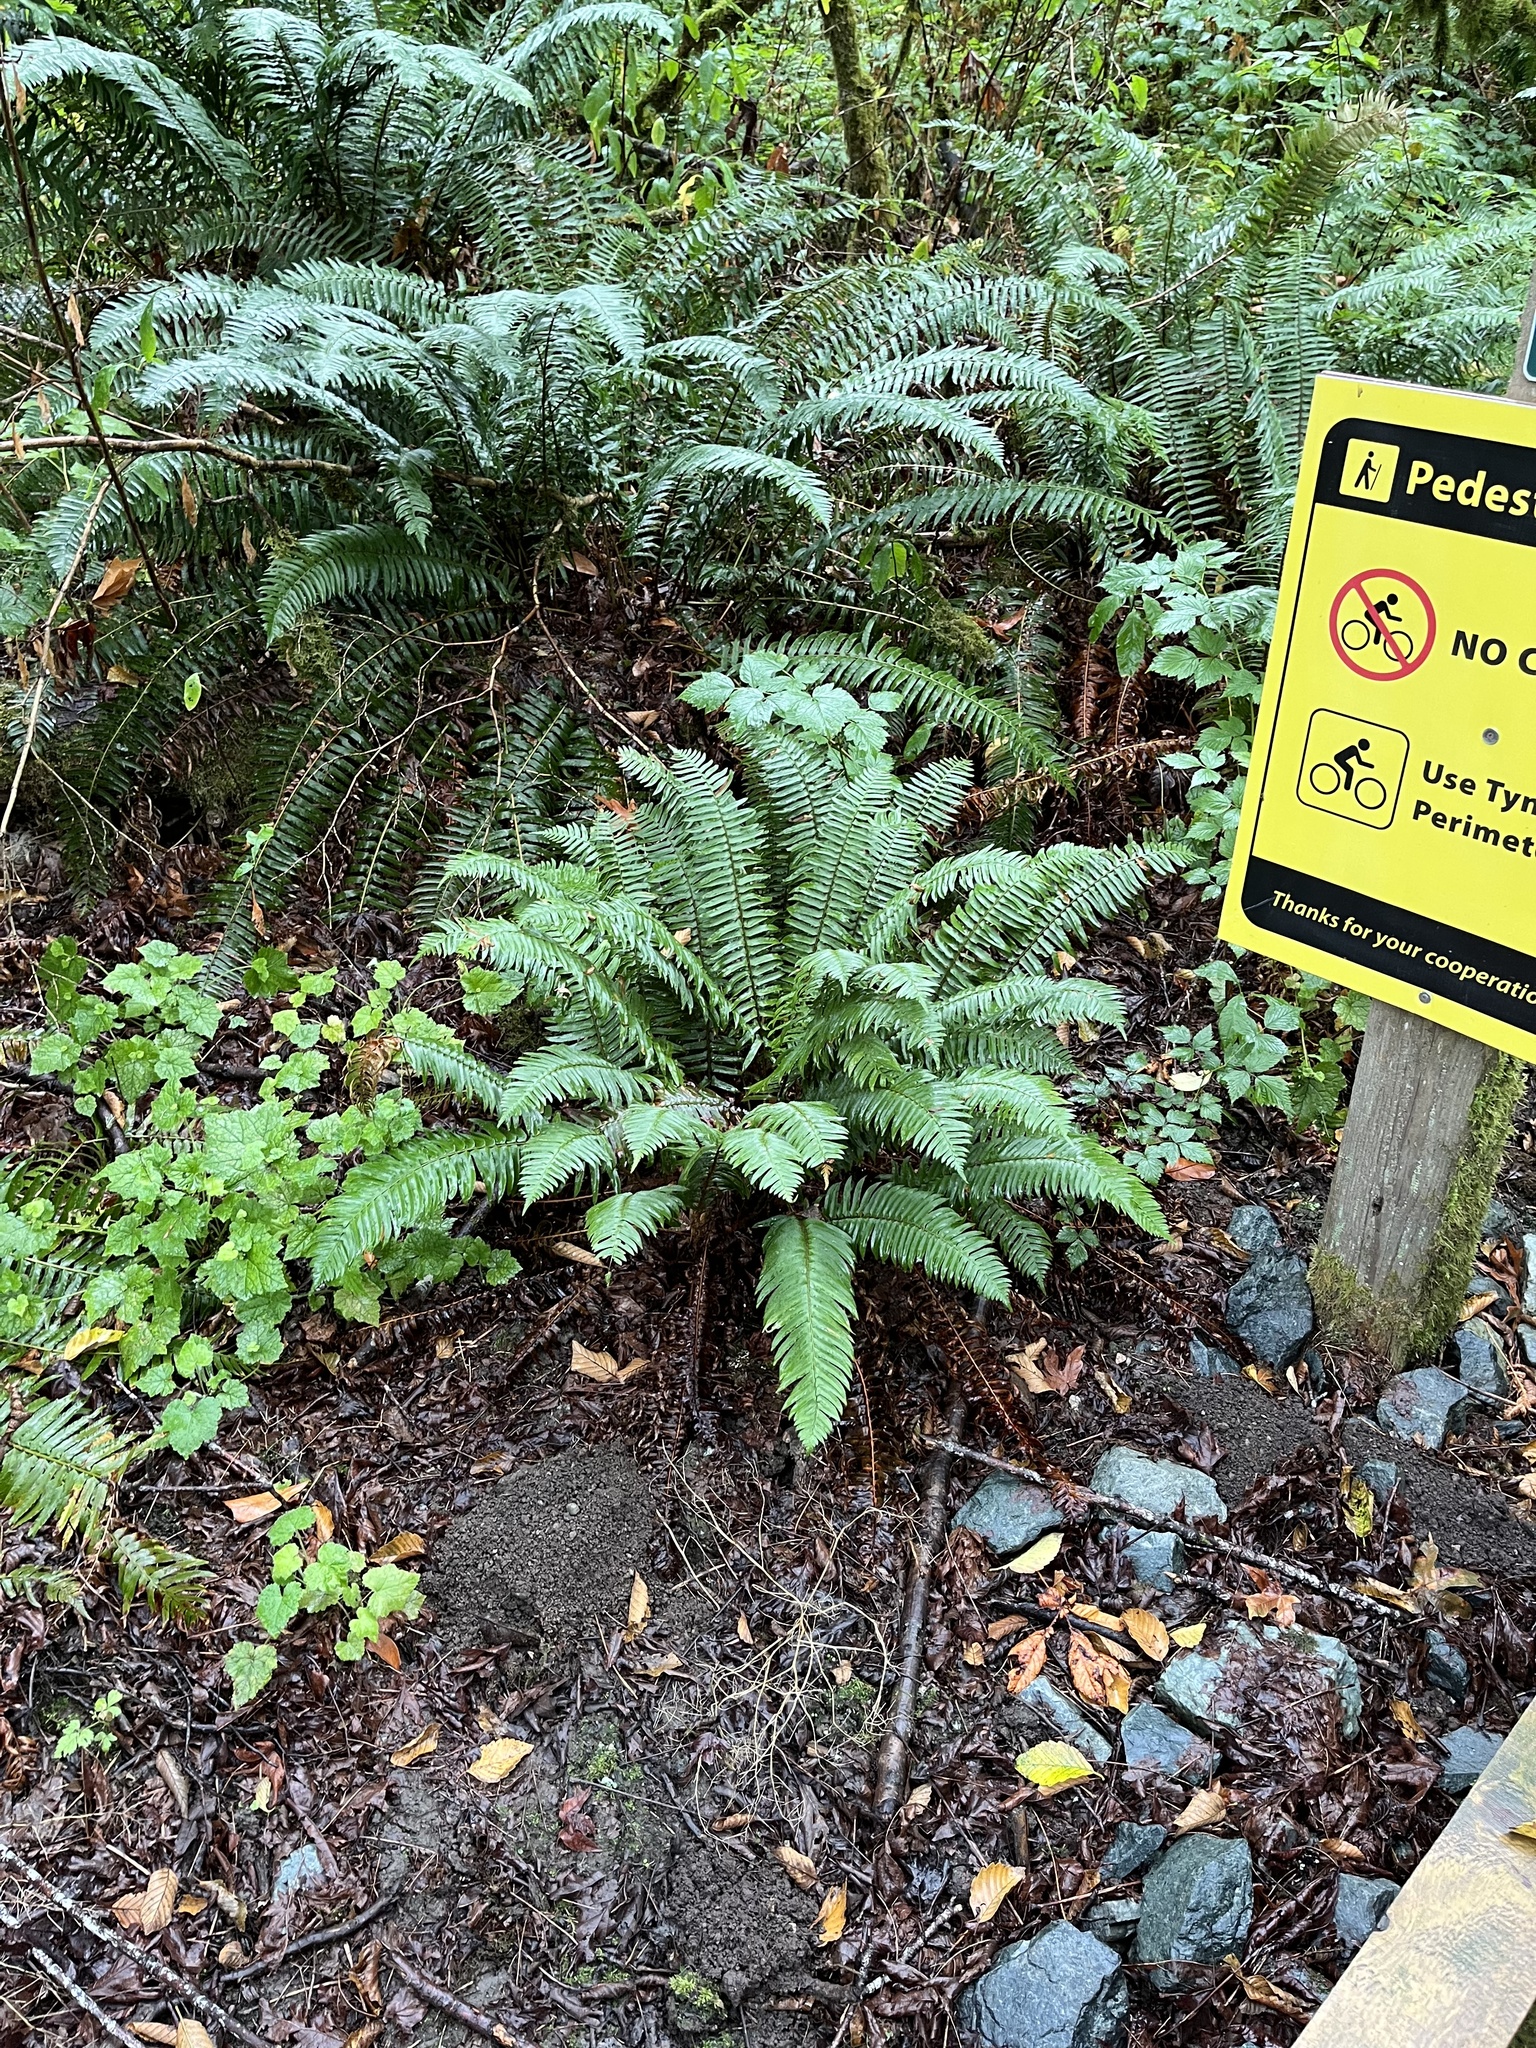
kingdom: Plantae
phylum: Tracheophyta
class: Polypodiopsida
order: Polypodiales
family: Dryopteridaceae
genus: Polystichum
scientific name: Polystichum munitum
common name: Western sword-fern
